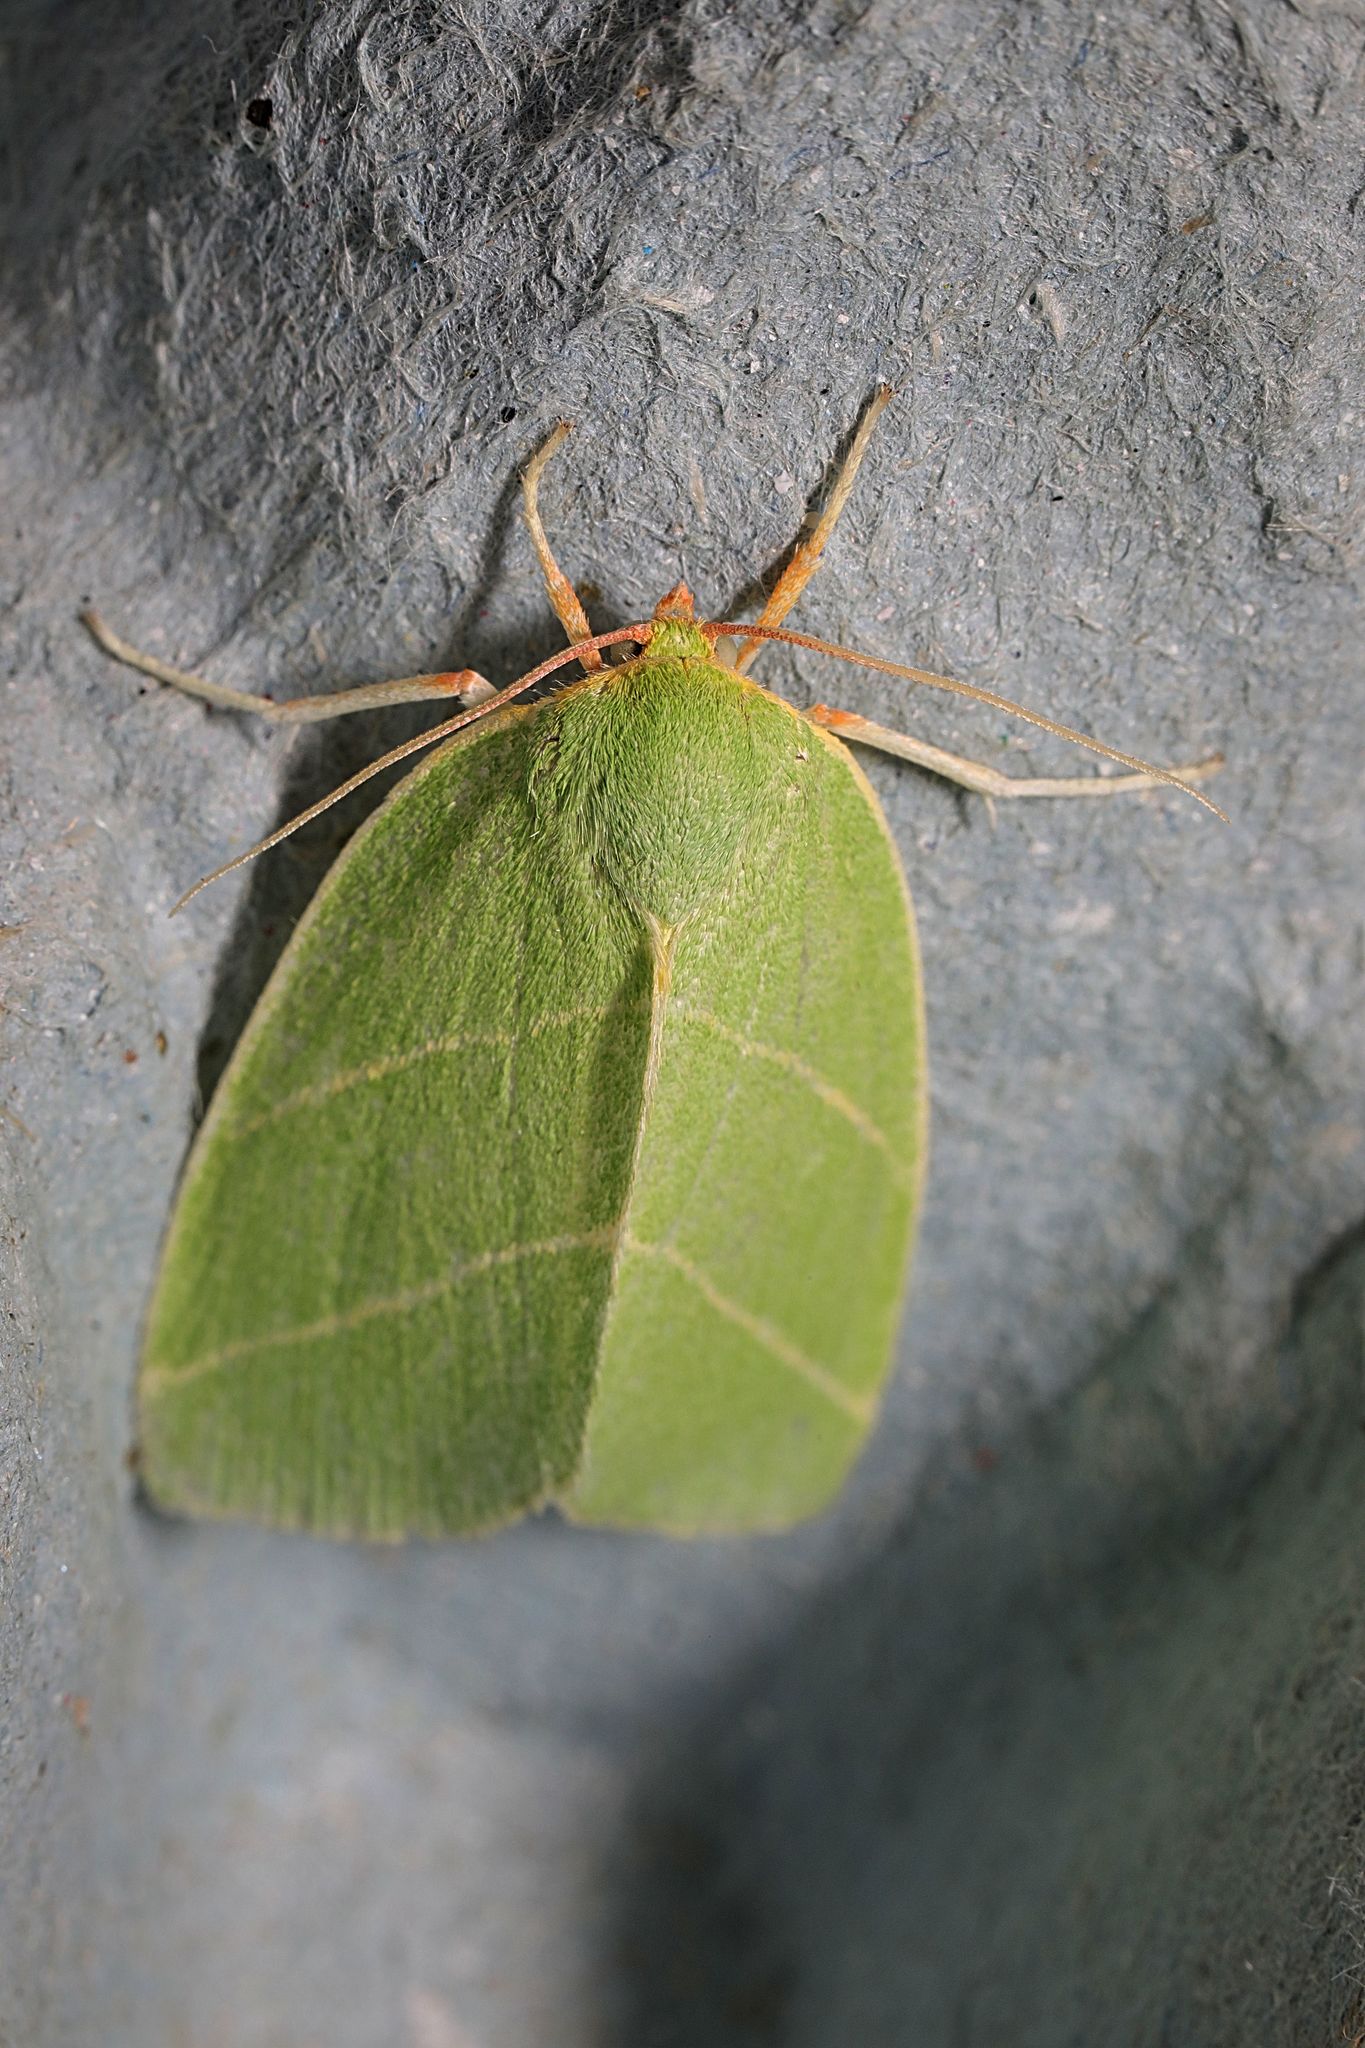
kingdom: Animalia
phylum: Arthropoda
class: Insecta
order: Lepidoptera
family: Nolidae
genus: Bena
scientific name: Bena bicolorana
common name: Scarce silver-lines
